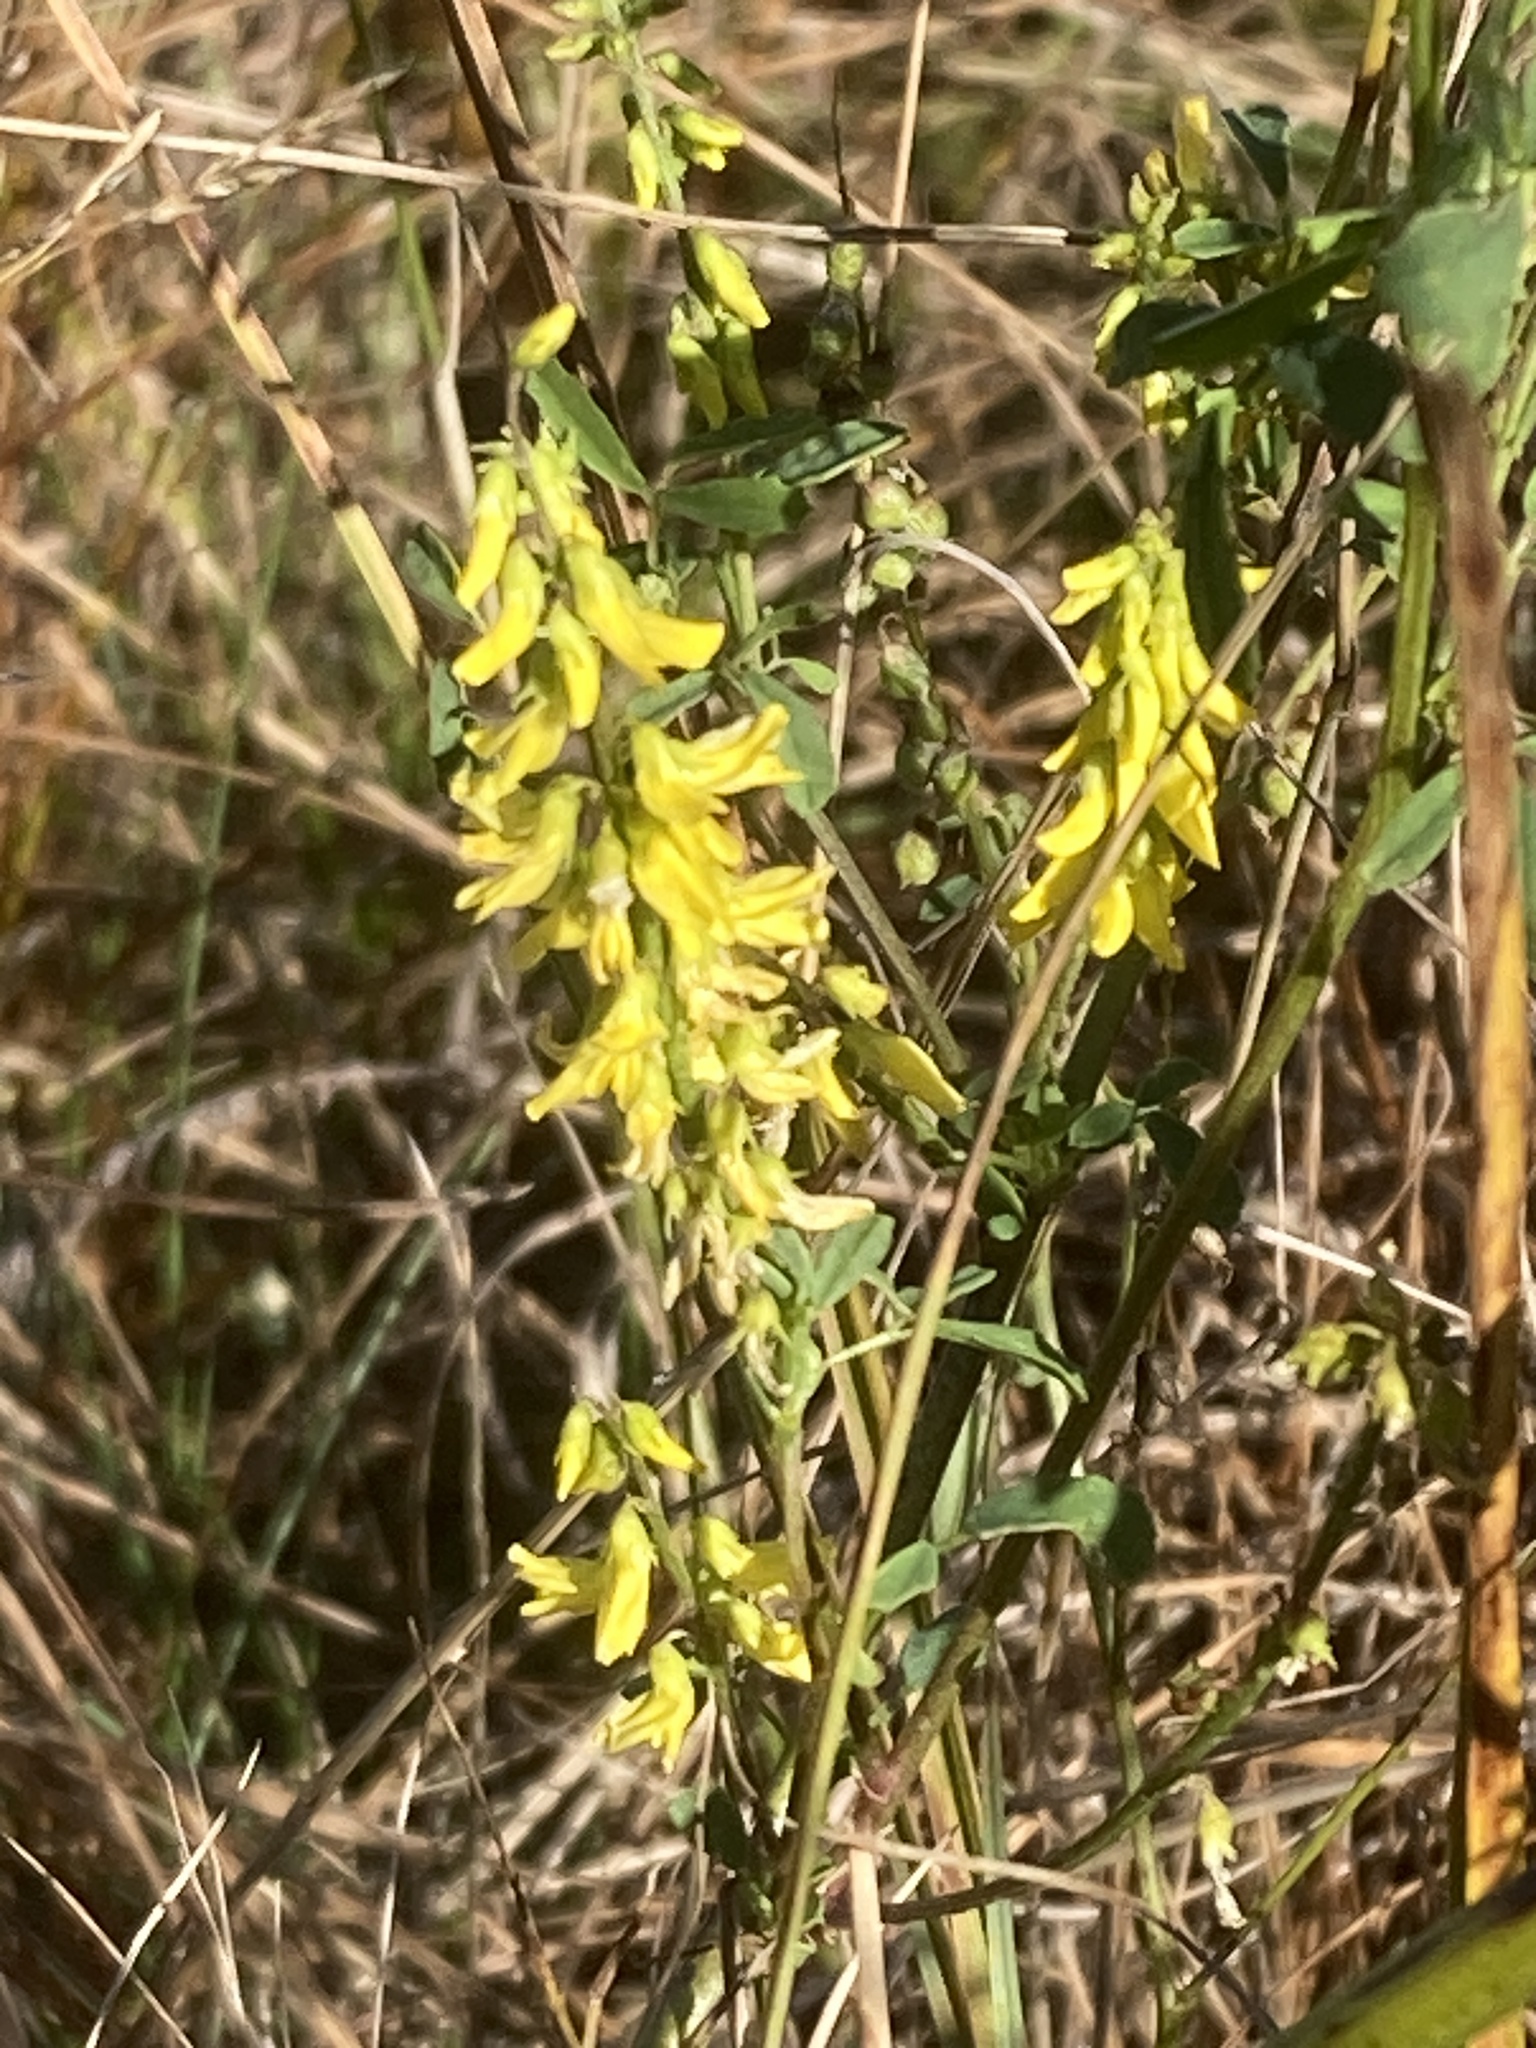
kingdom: Plantae
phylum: Tracheophyta
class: Magnoliopsida
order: Fabales
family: Fabaceae
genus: Melilotus
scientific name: Melilotus officinalis
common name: Sweetclover
